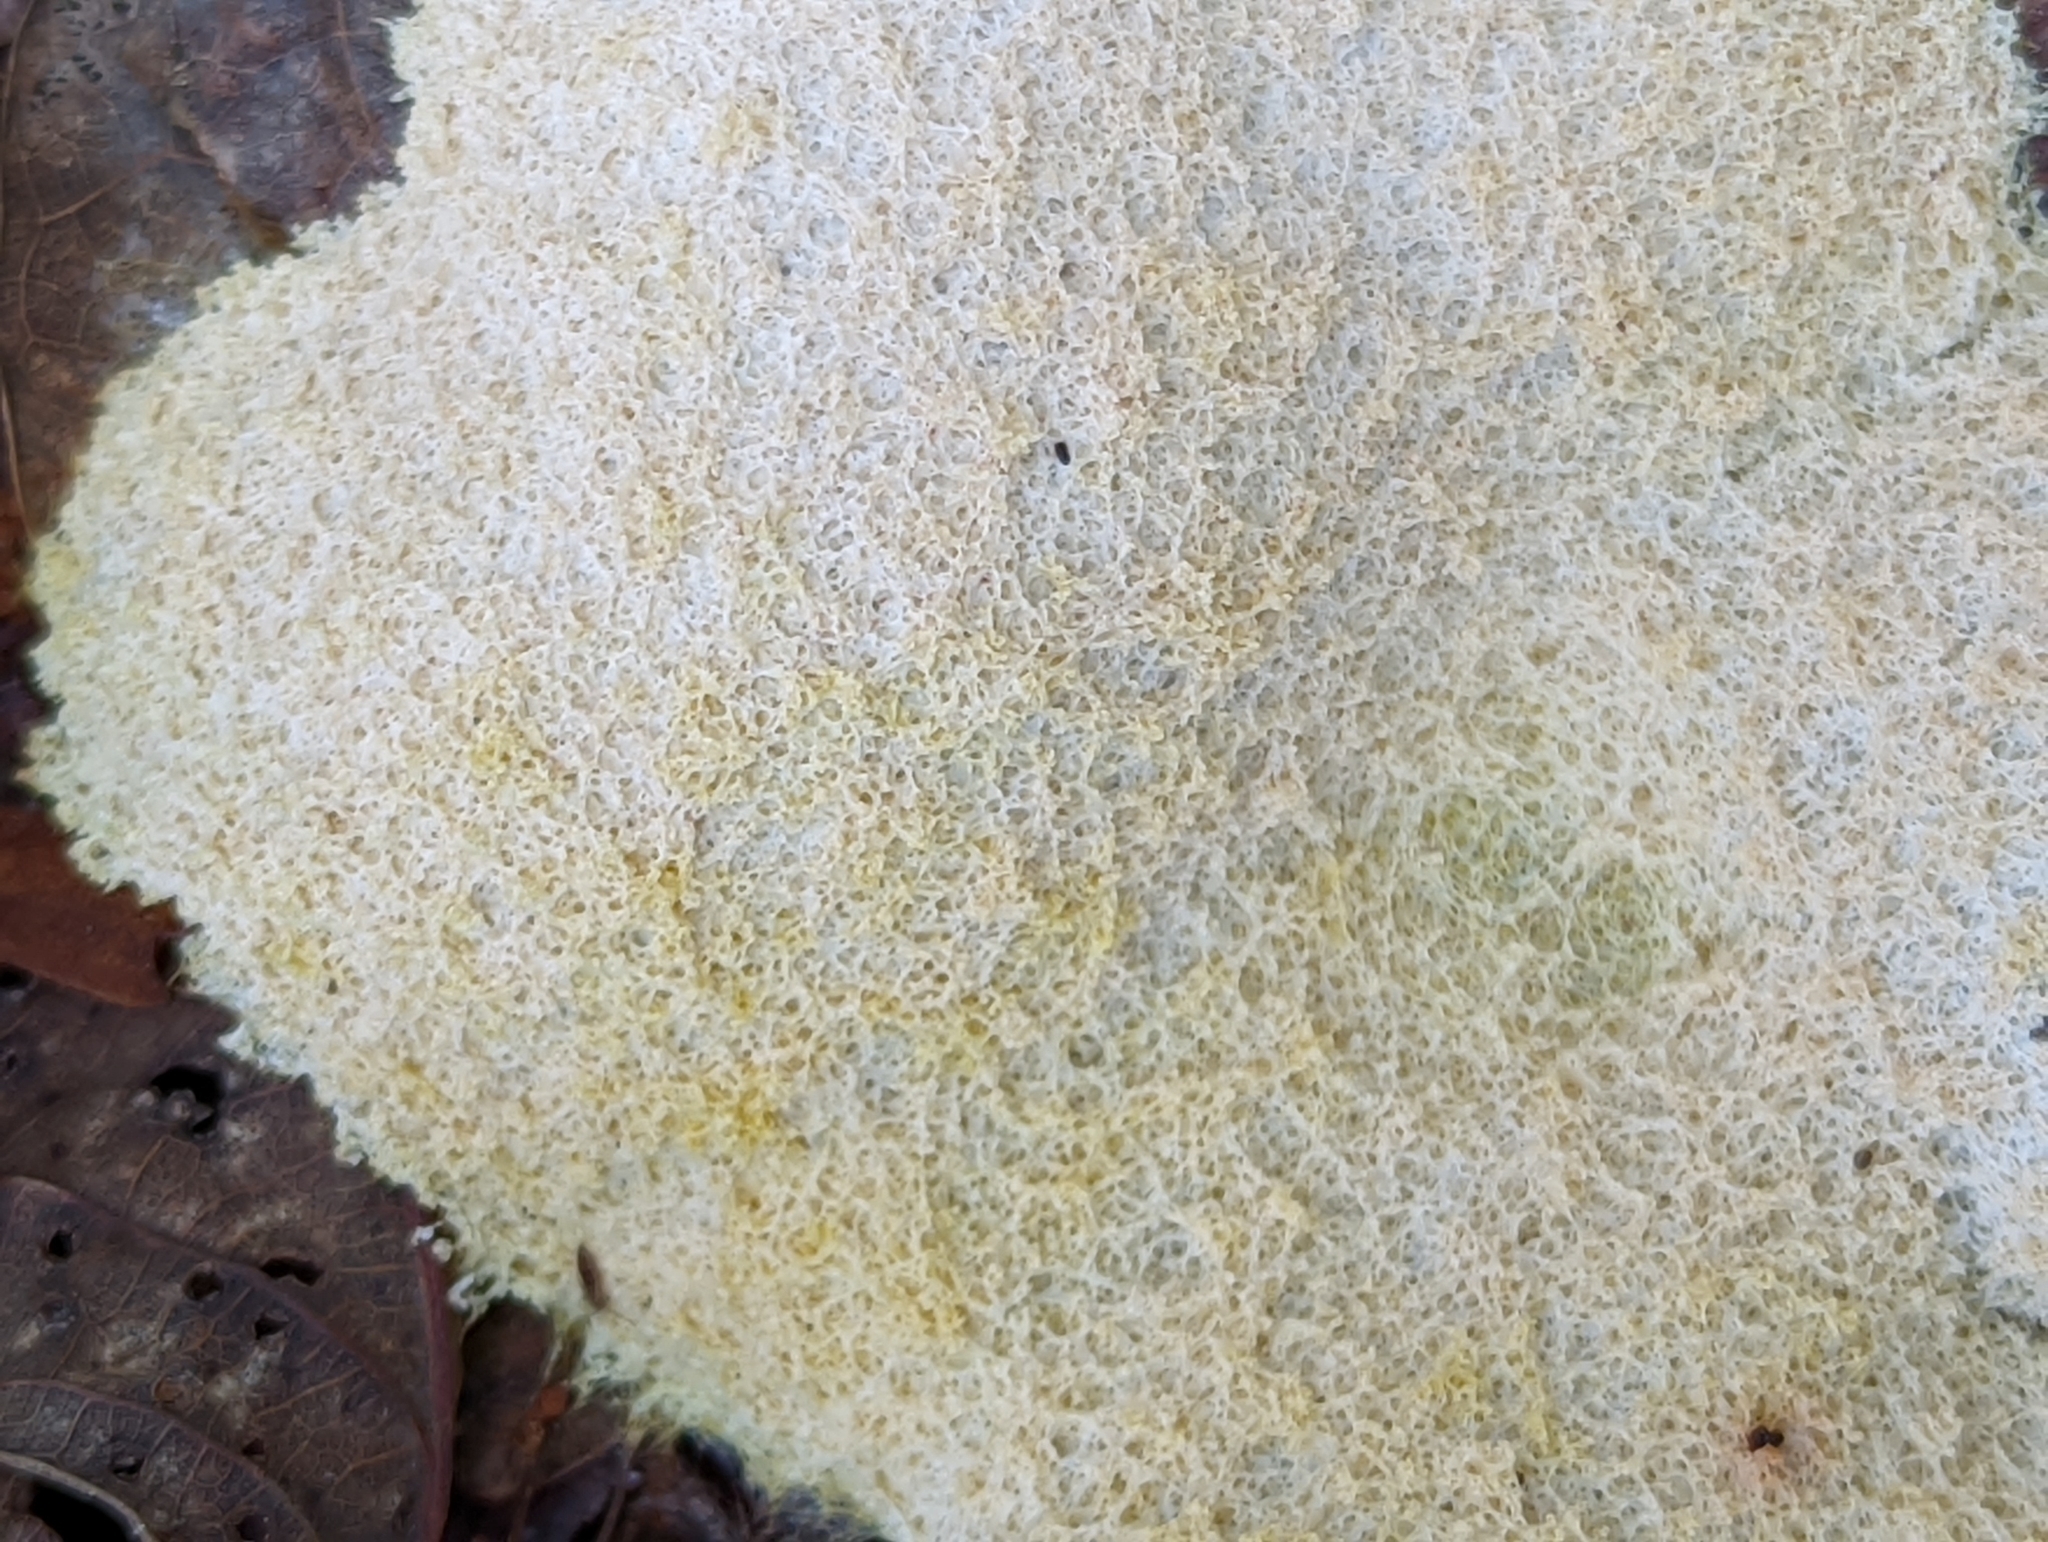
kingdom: Protozoa
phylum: Mycetozoa
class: Myxomycetes
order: Physarales
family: Physaraceae
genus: Fuligo
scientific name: Fuligo septica
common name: Dog vomit slime mold
